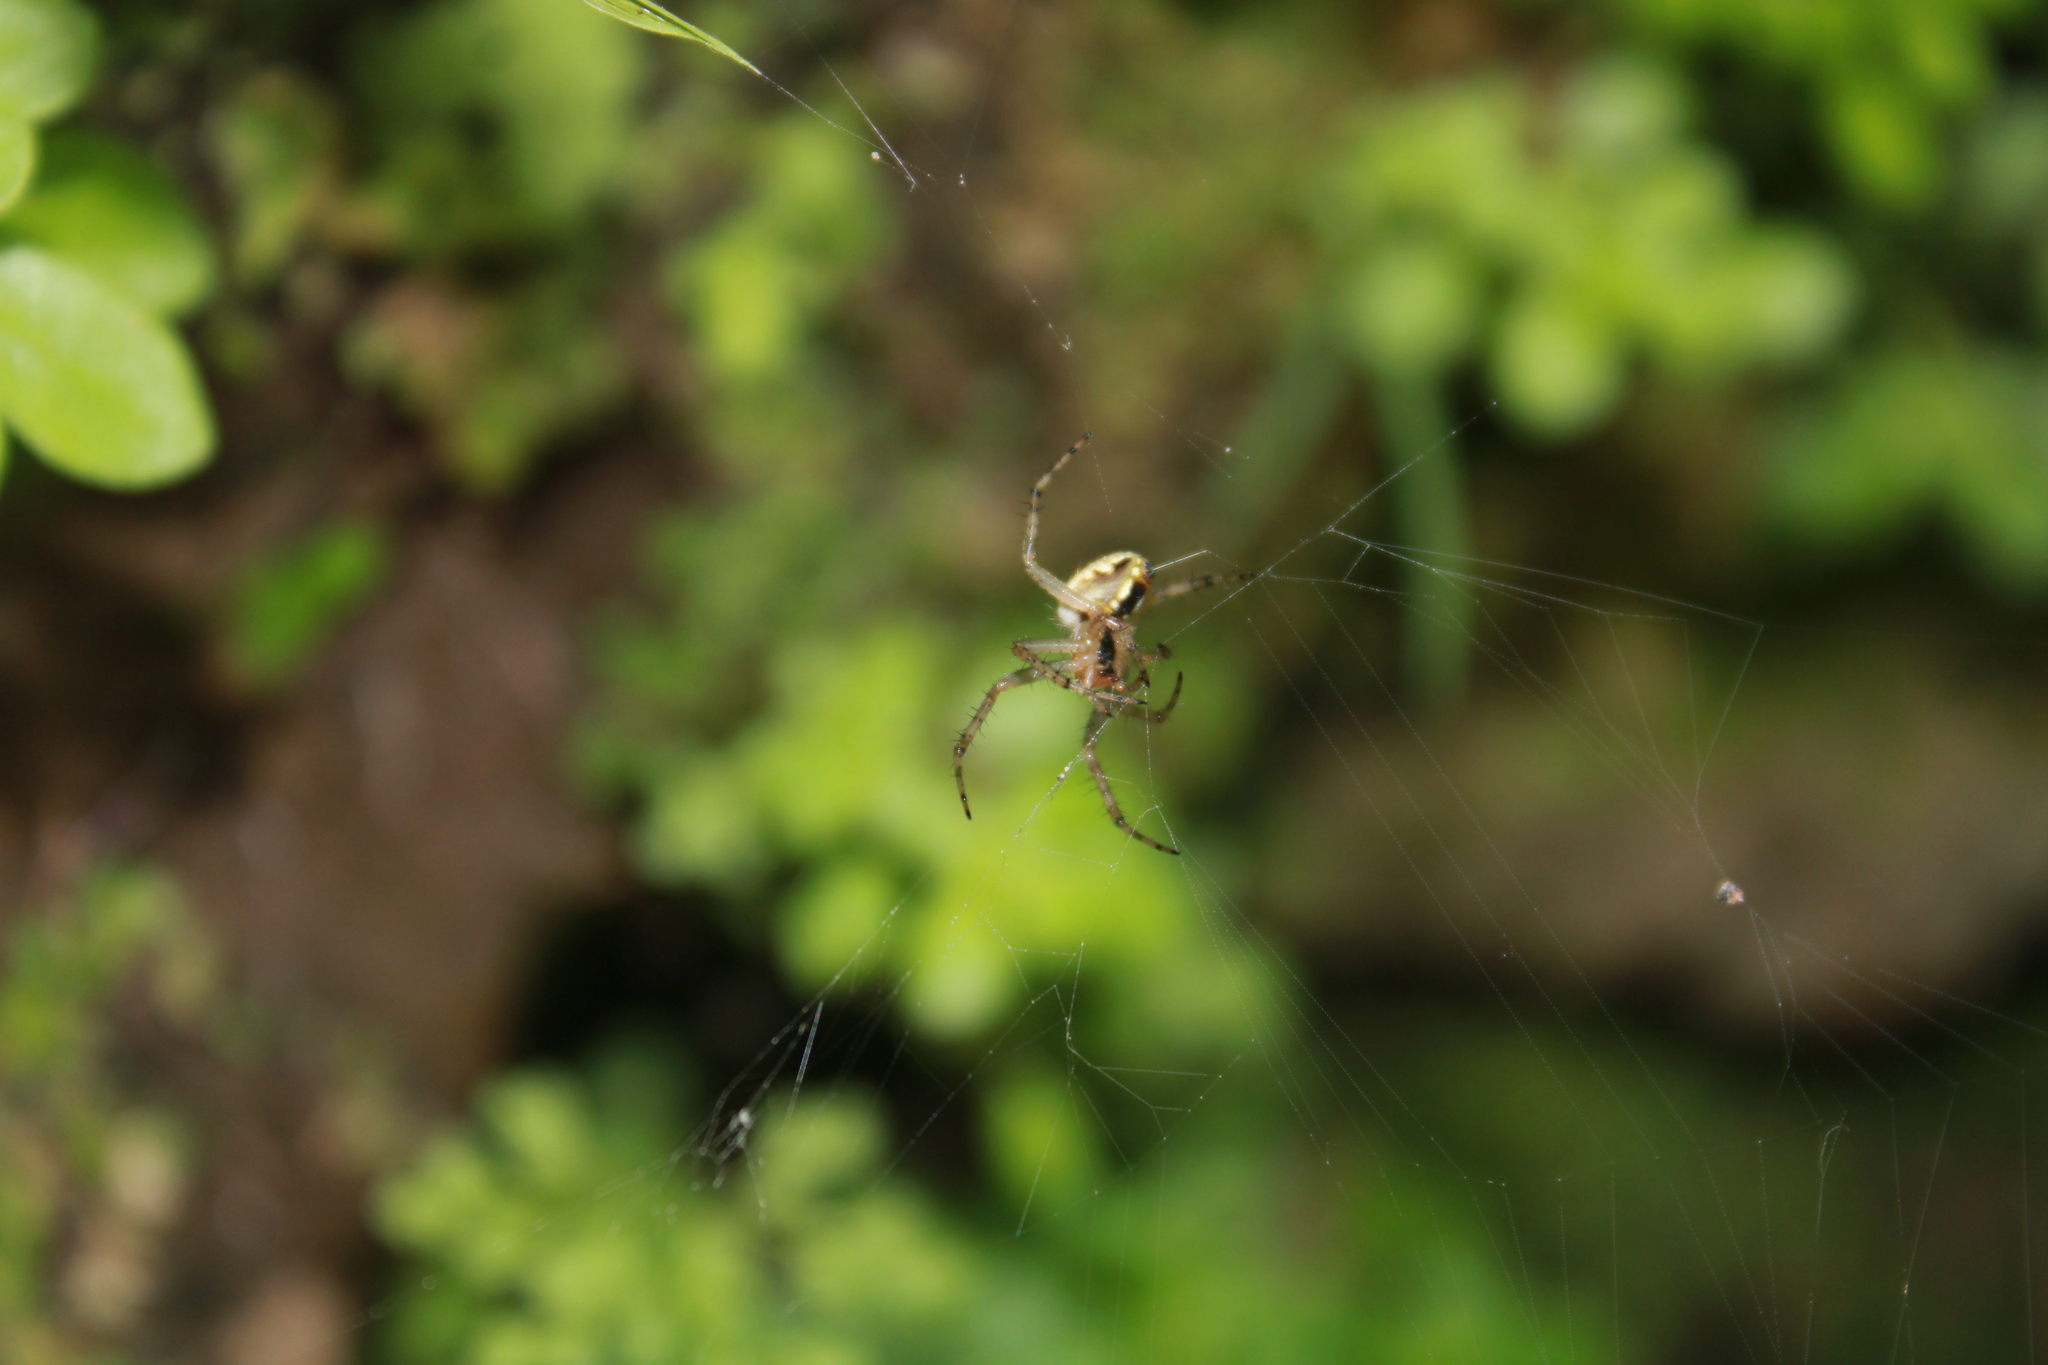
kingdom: Animalia
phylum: Arthropoda
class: Arachnida
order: Araneae
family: Araneidae
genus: Neoscona
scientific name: Neoscona oaxacensis
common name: Orb weavers
